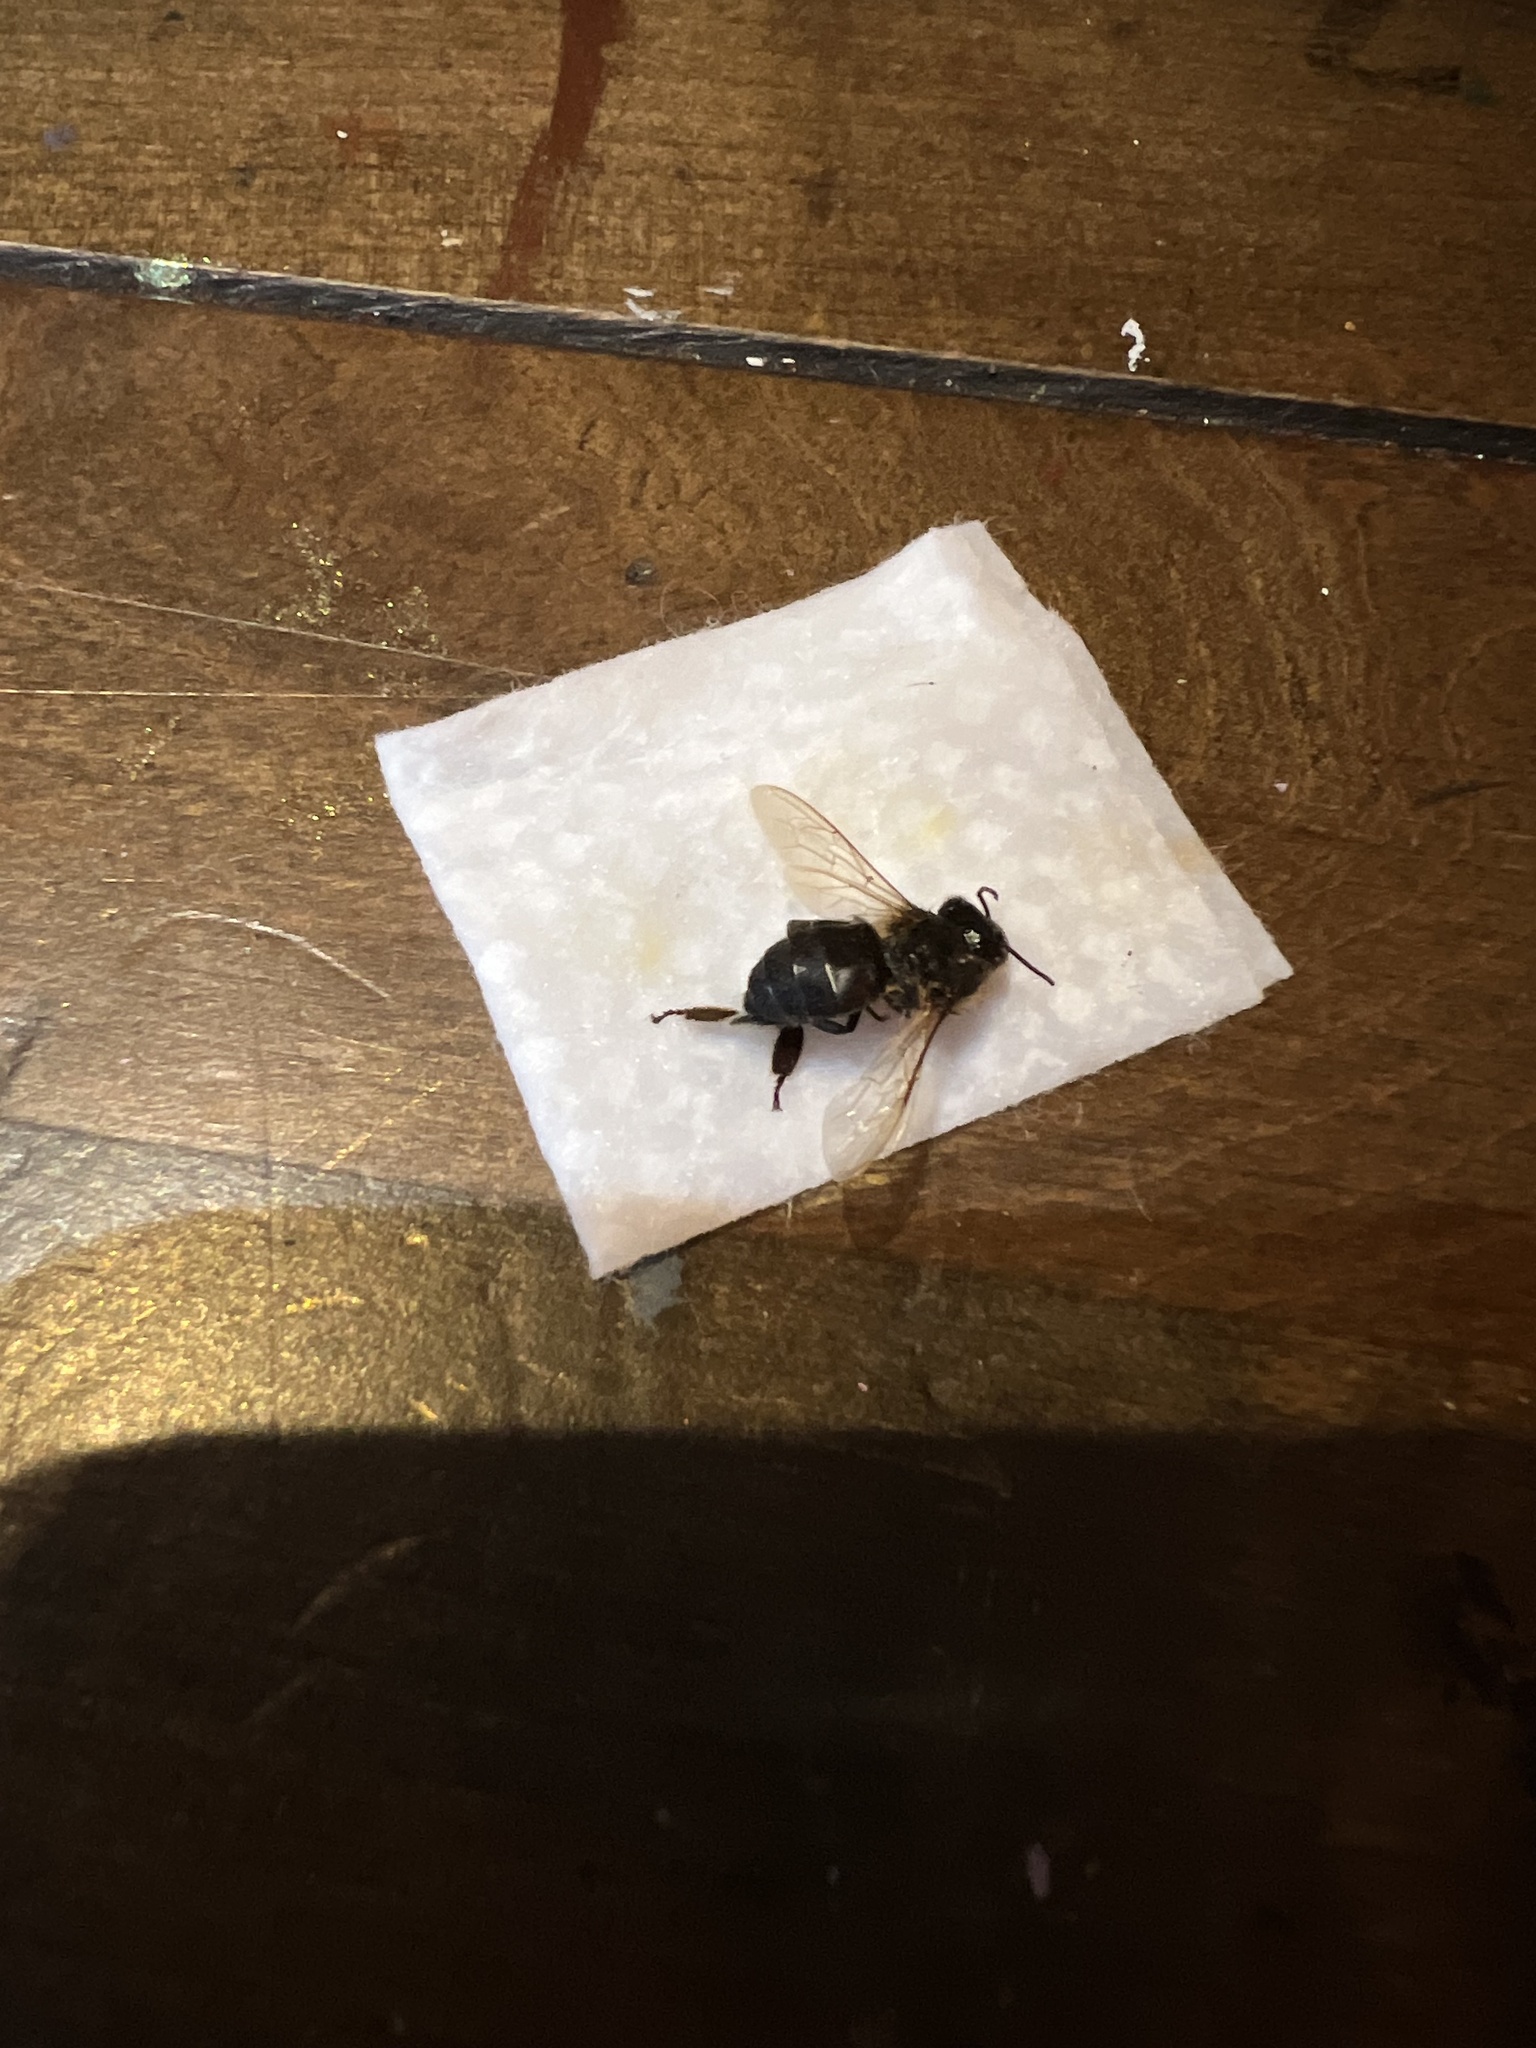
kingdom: Animalia
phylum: Arthropoda
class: Insecta
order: Hymenoptera
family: Apidae
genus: Apis
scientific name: Apis mellifera
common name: Honey bee
